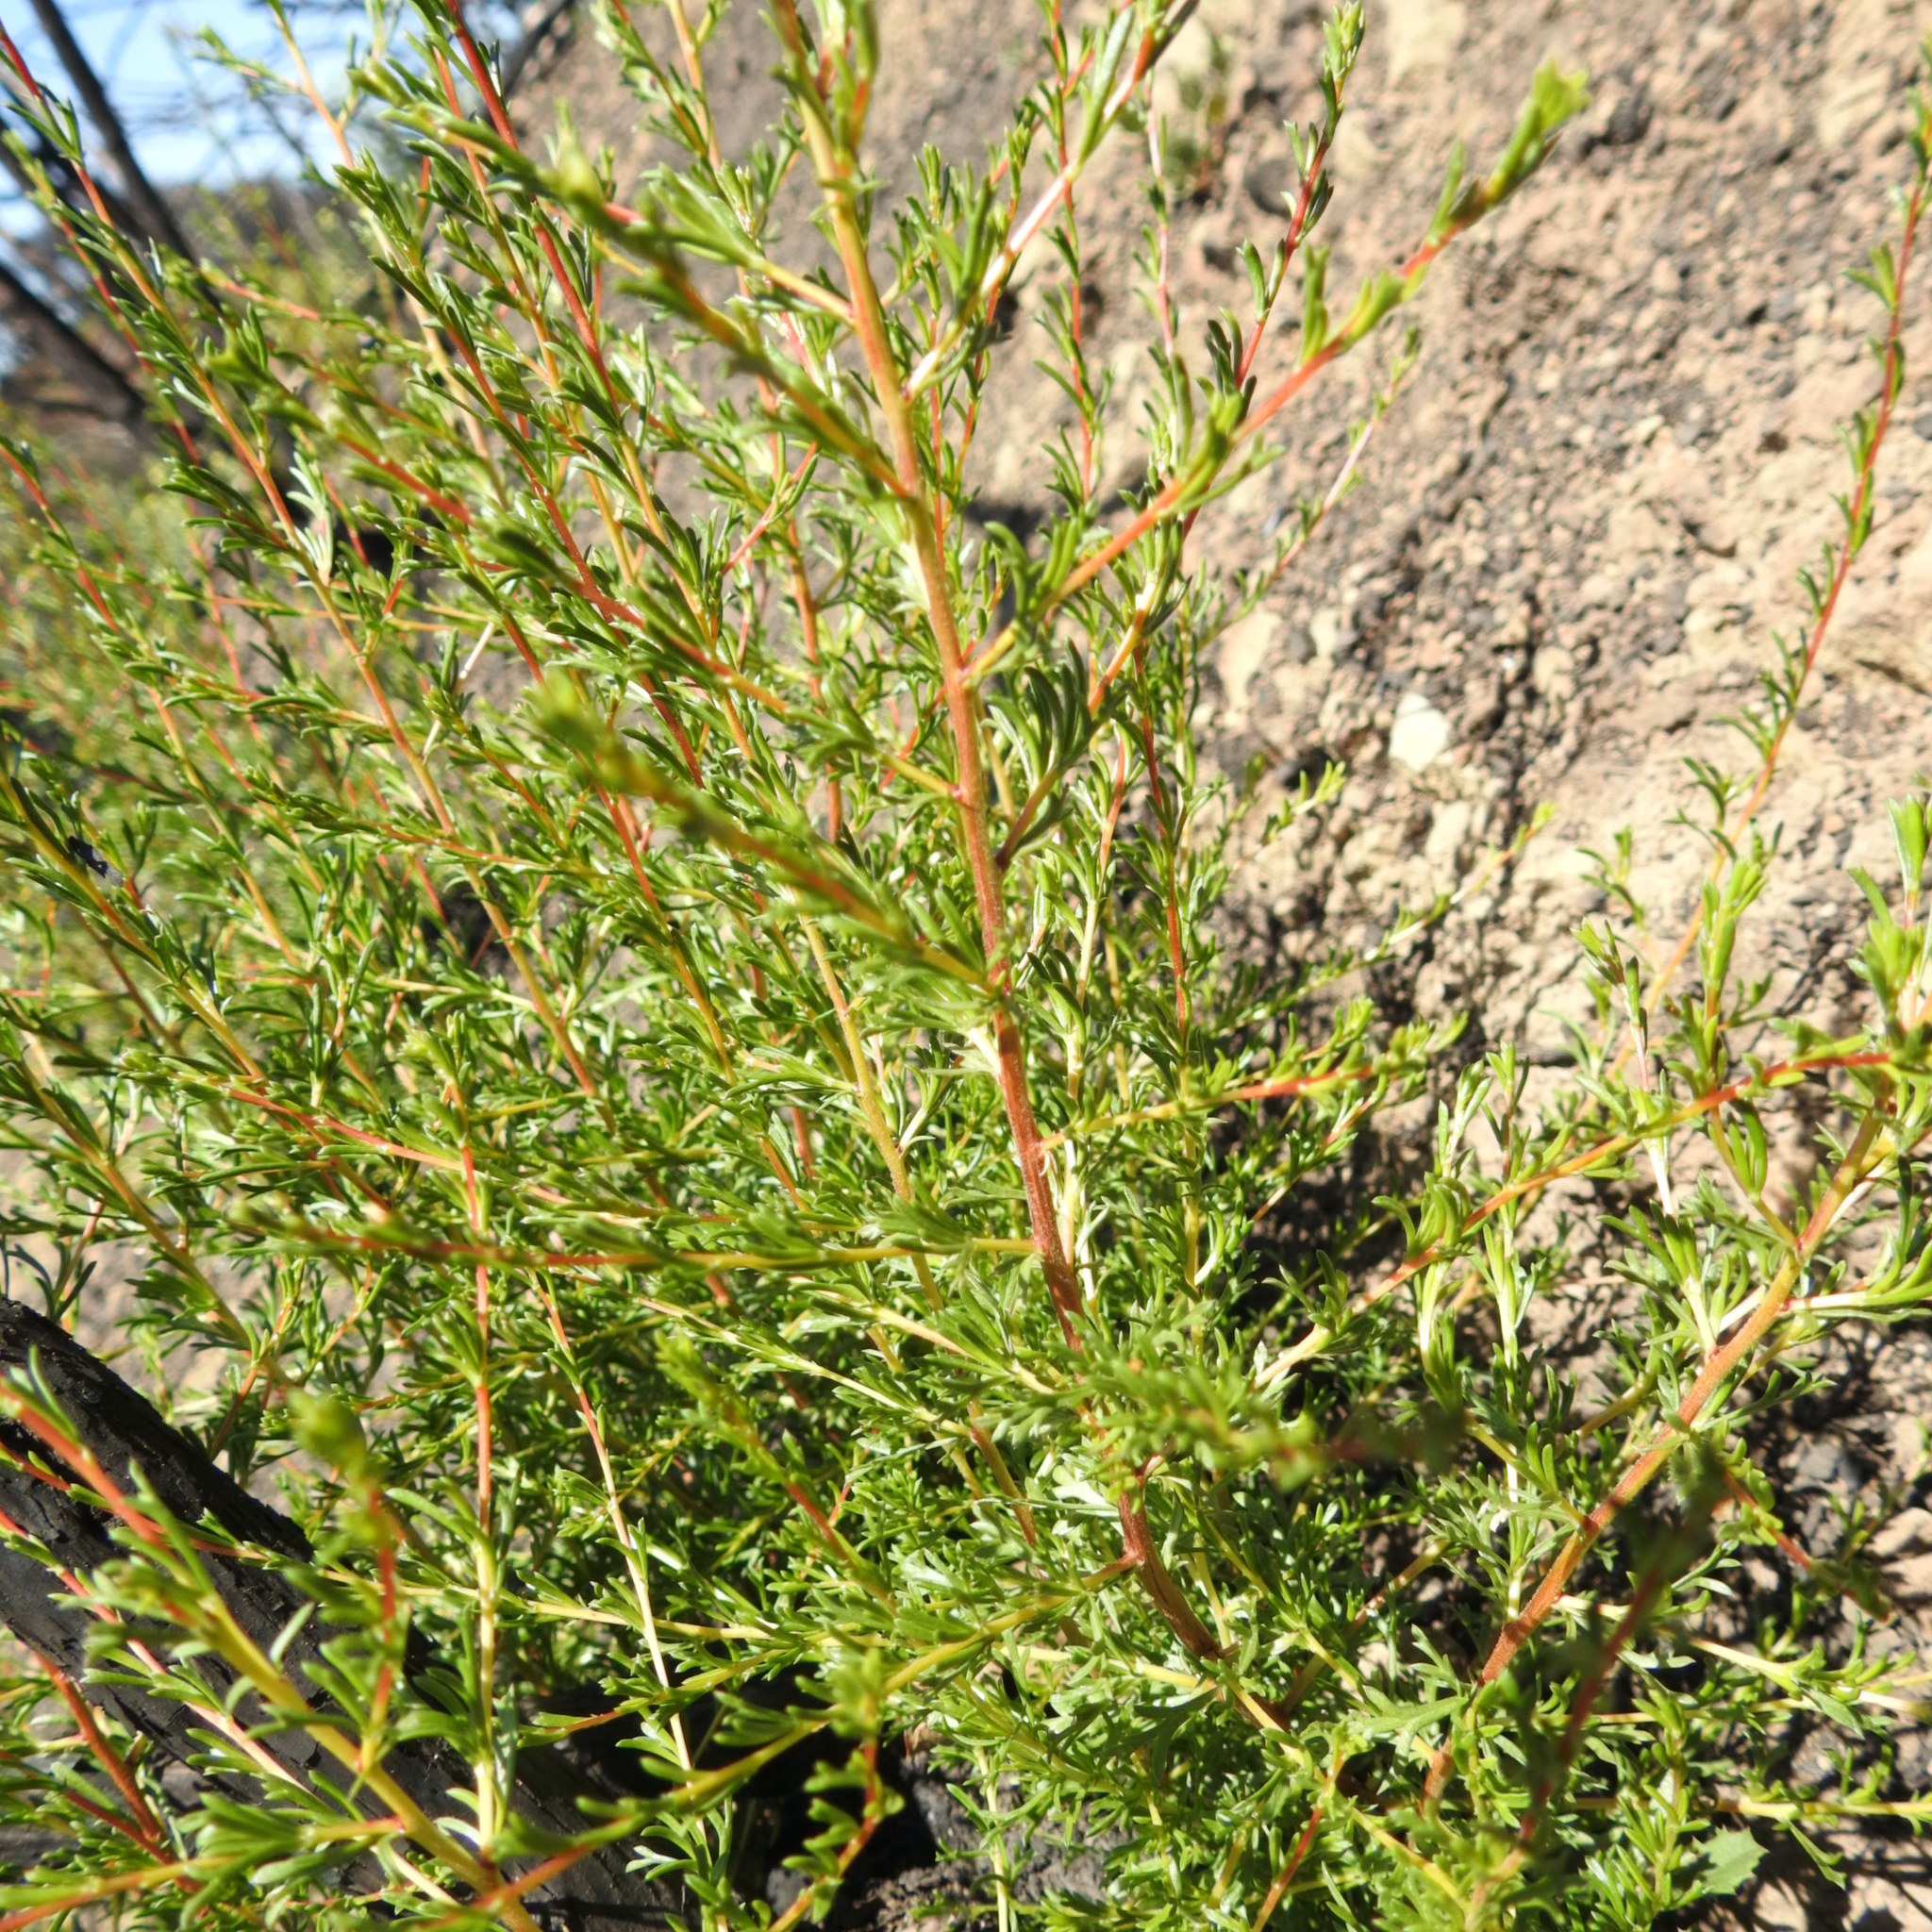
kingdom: Plantae
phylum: Tracheophyta
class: Magnoliopsida
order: Rosales
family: Rosaceae
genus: Adenostoma
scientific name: Adenostoma fasciculatum
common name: Chamise
